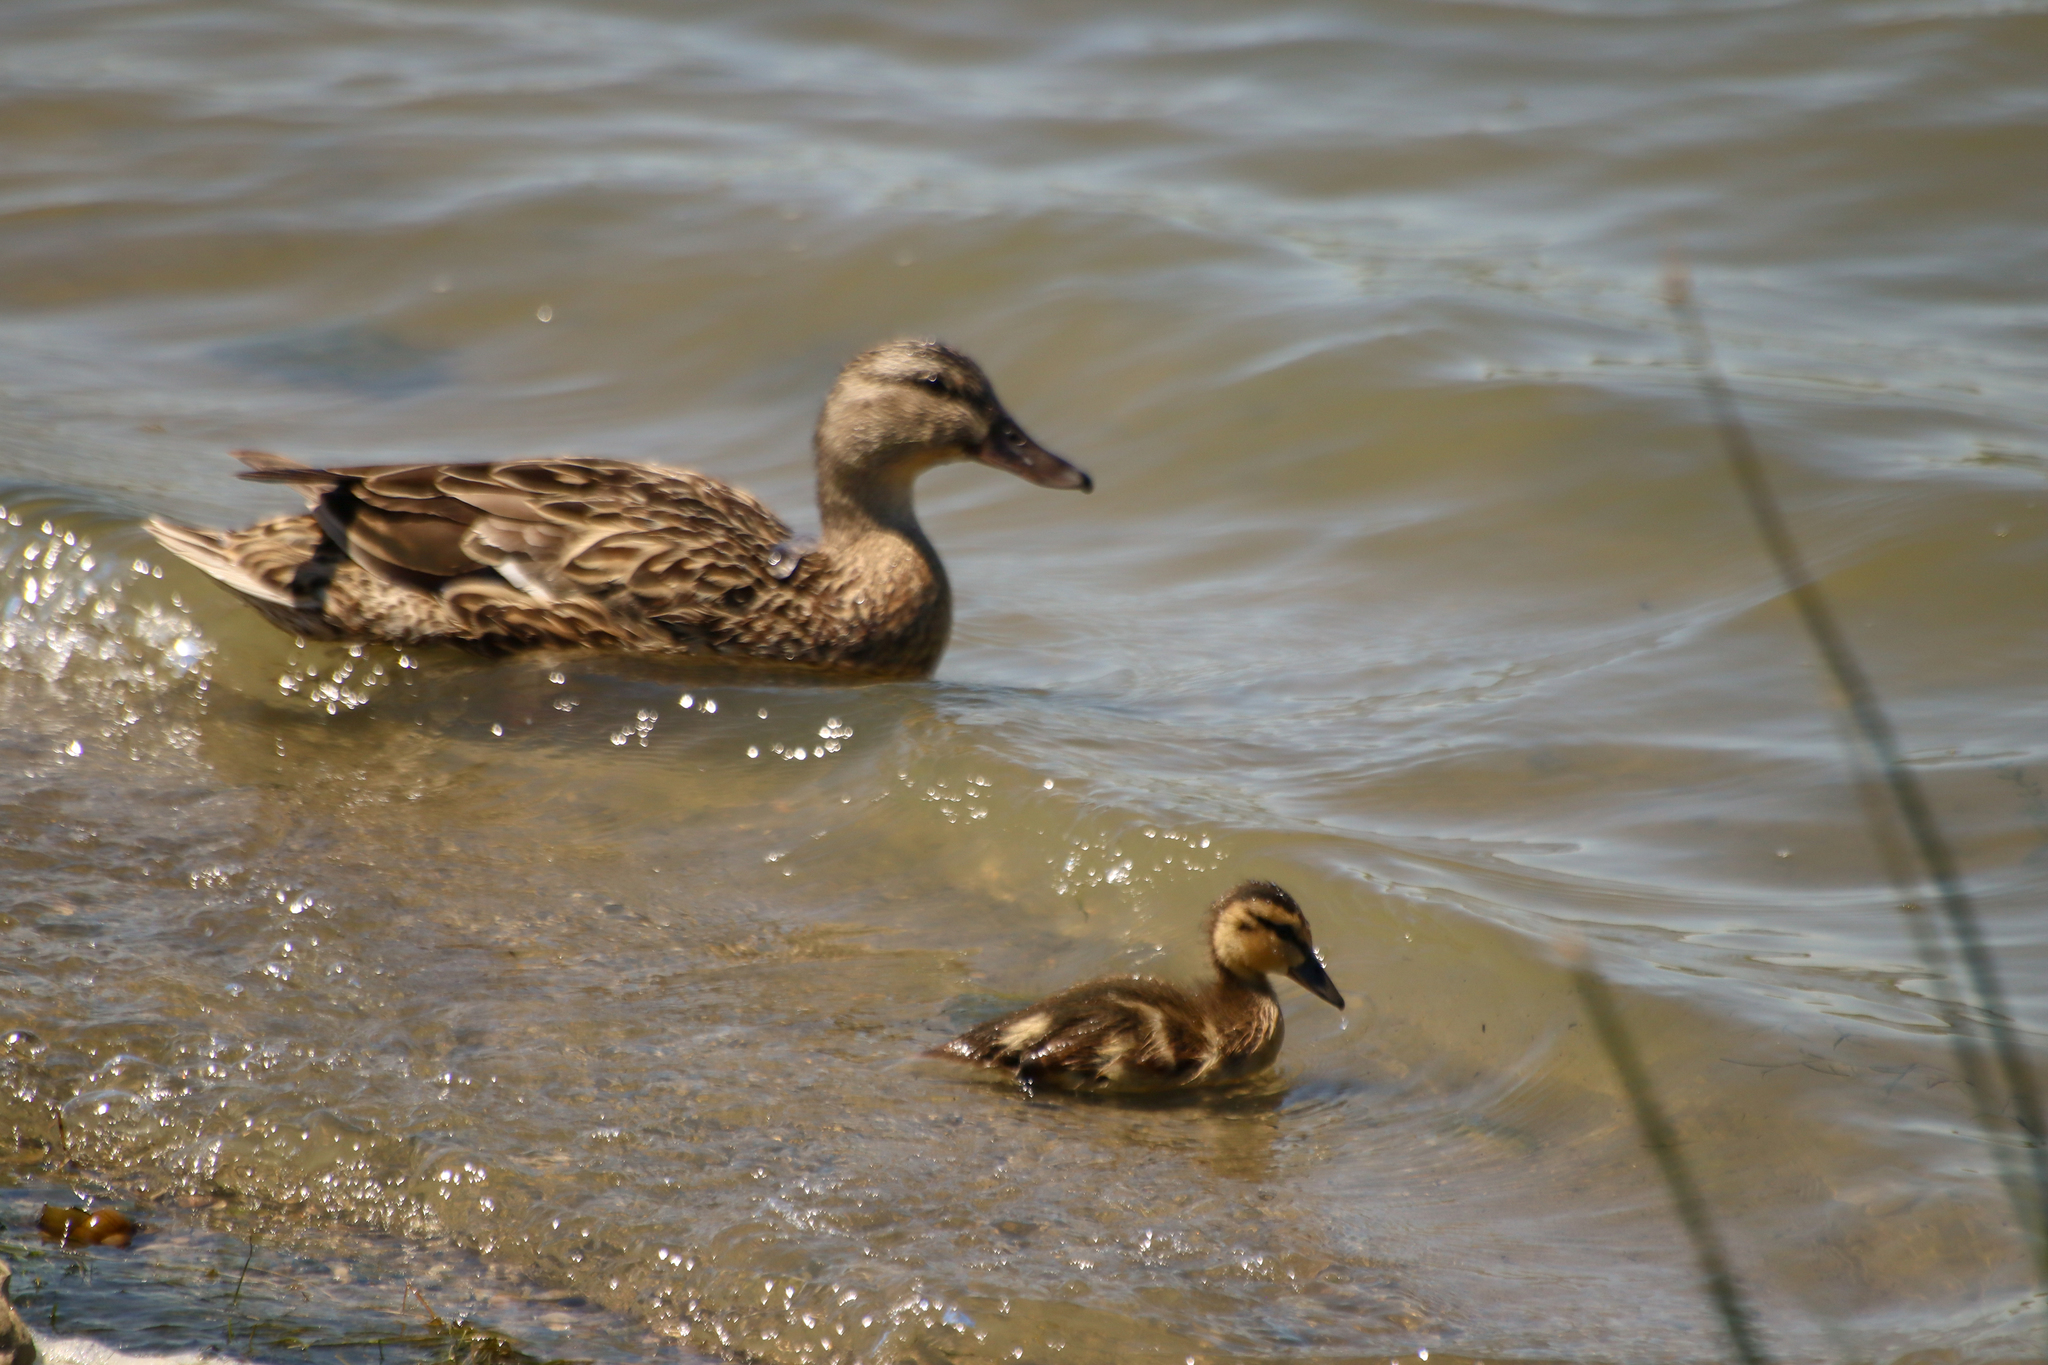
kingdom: Animalia
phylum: Chordata
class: Aves
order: Anseriformes
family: Anatidae
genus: Anas
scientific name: Anas platyrhynchos
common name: Mallard
